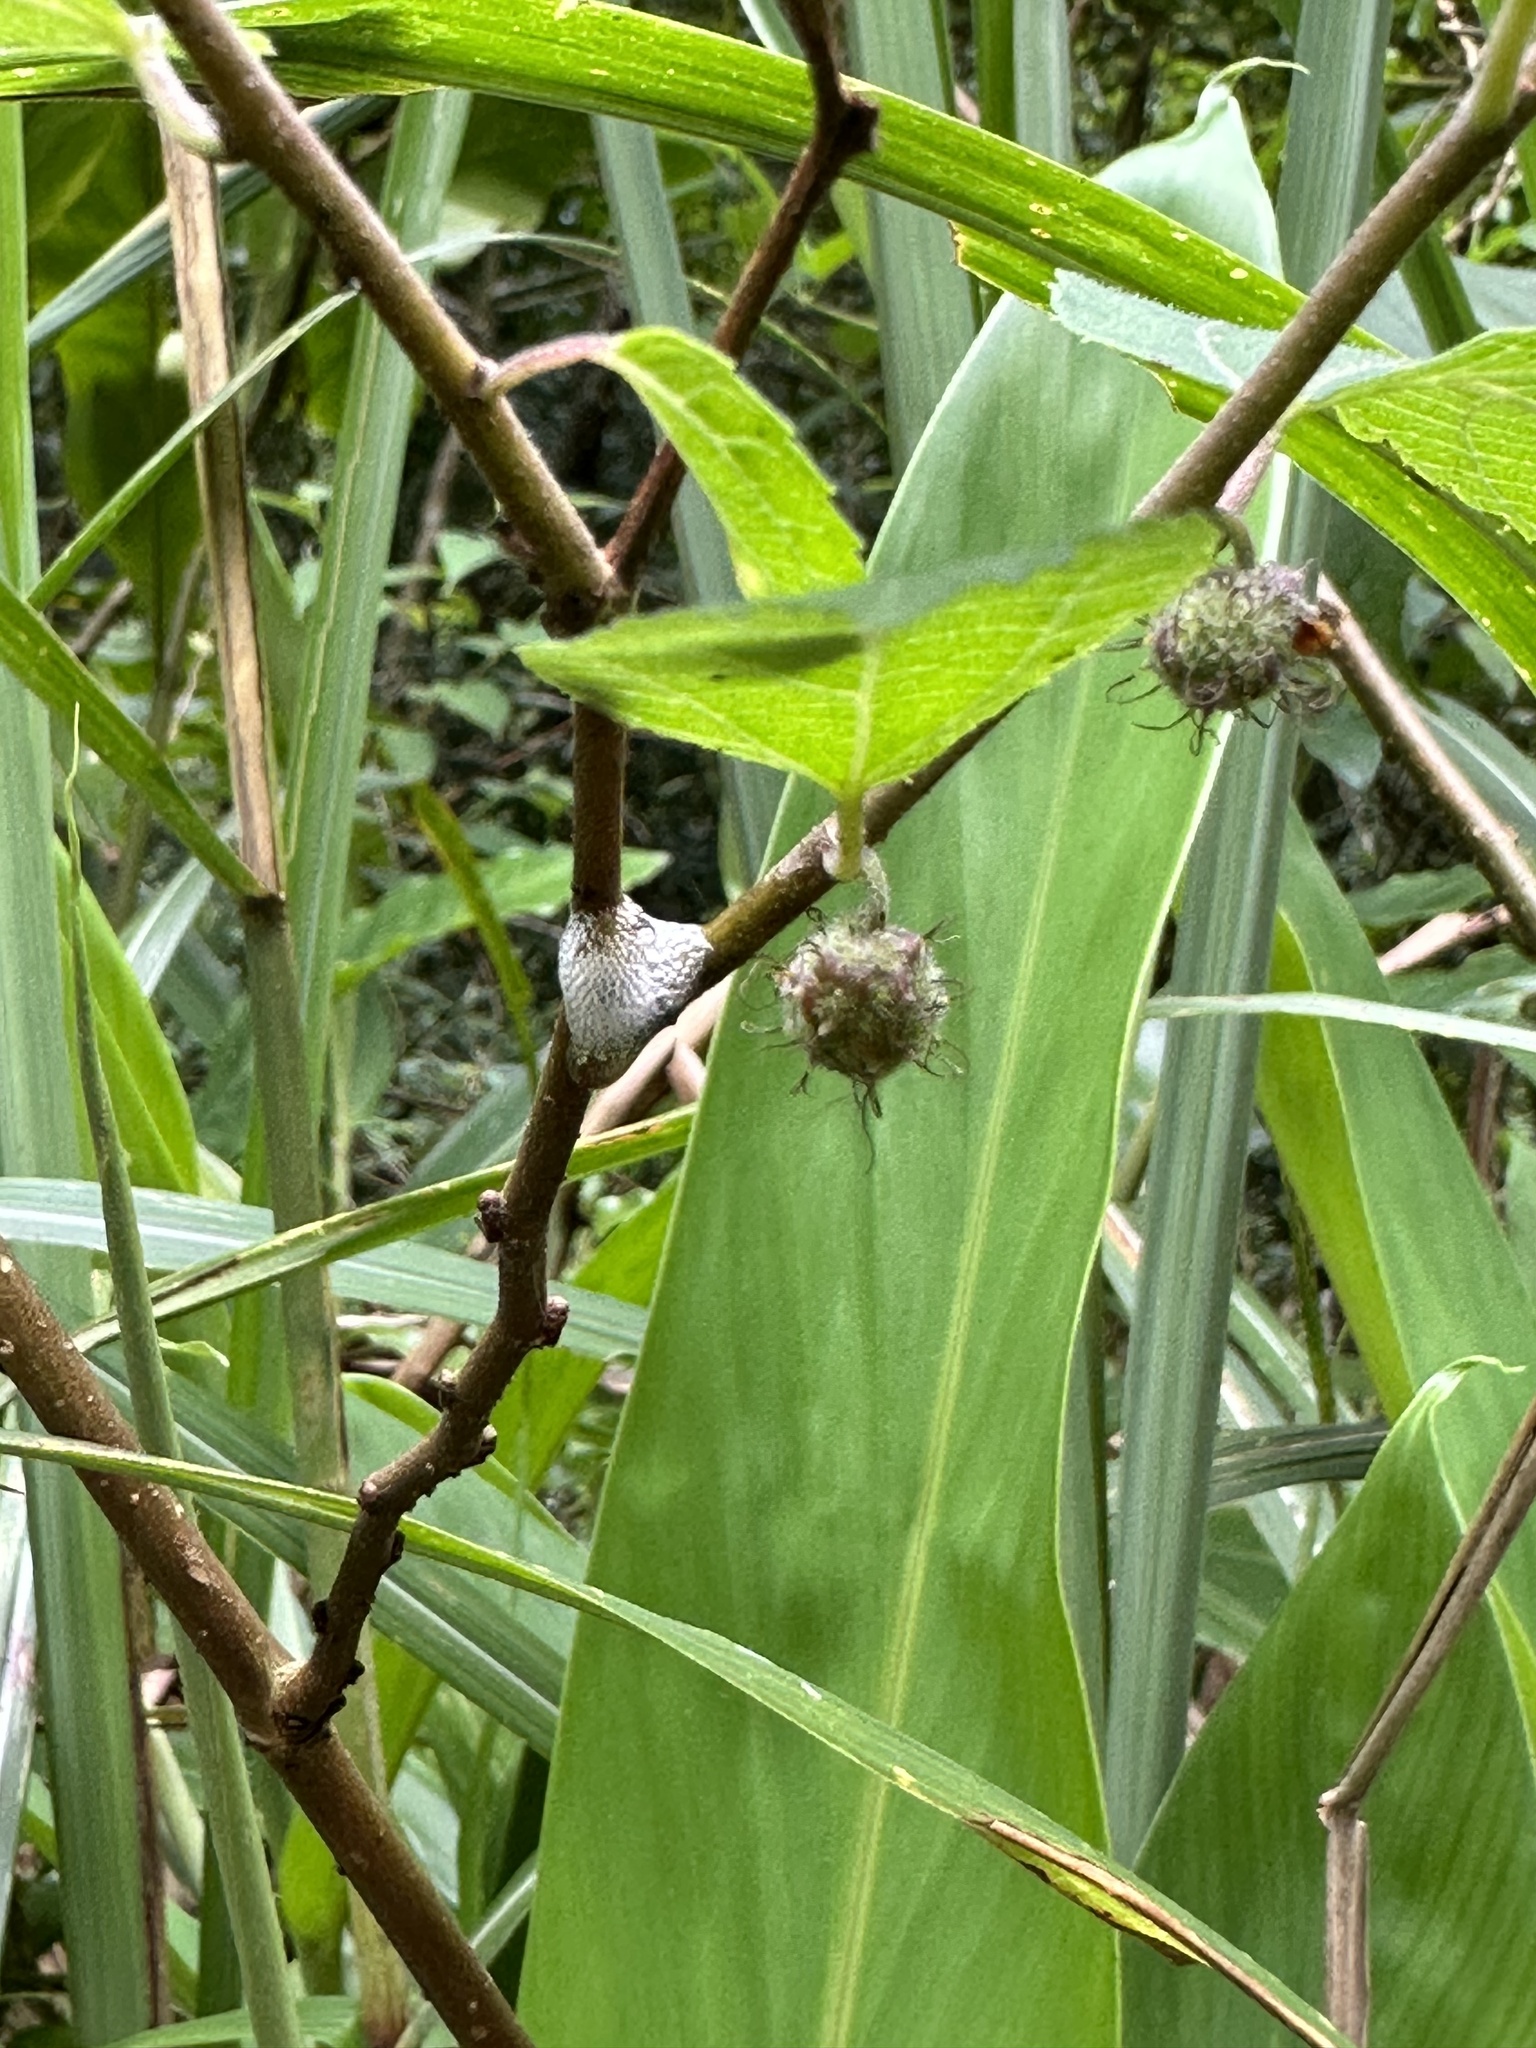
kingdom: Plantae
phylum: Tracheophyta
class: Magnoliopsida
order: Rosales
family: Moraceae
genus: Broussonetia
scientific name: Broussonetia monoica
